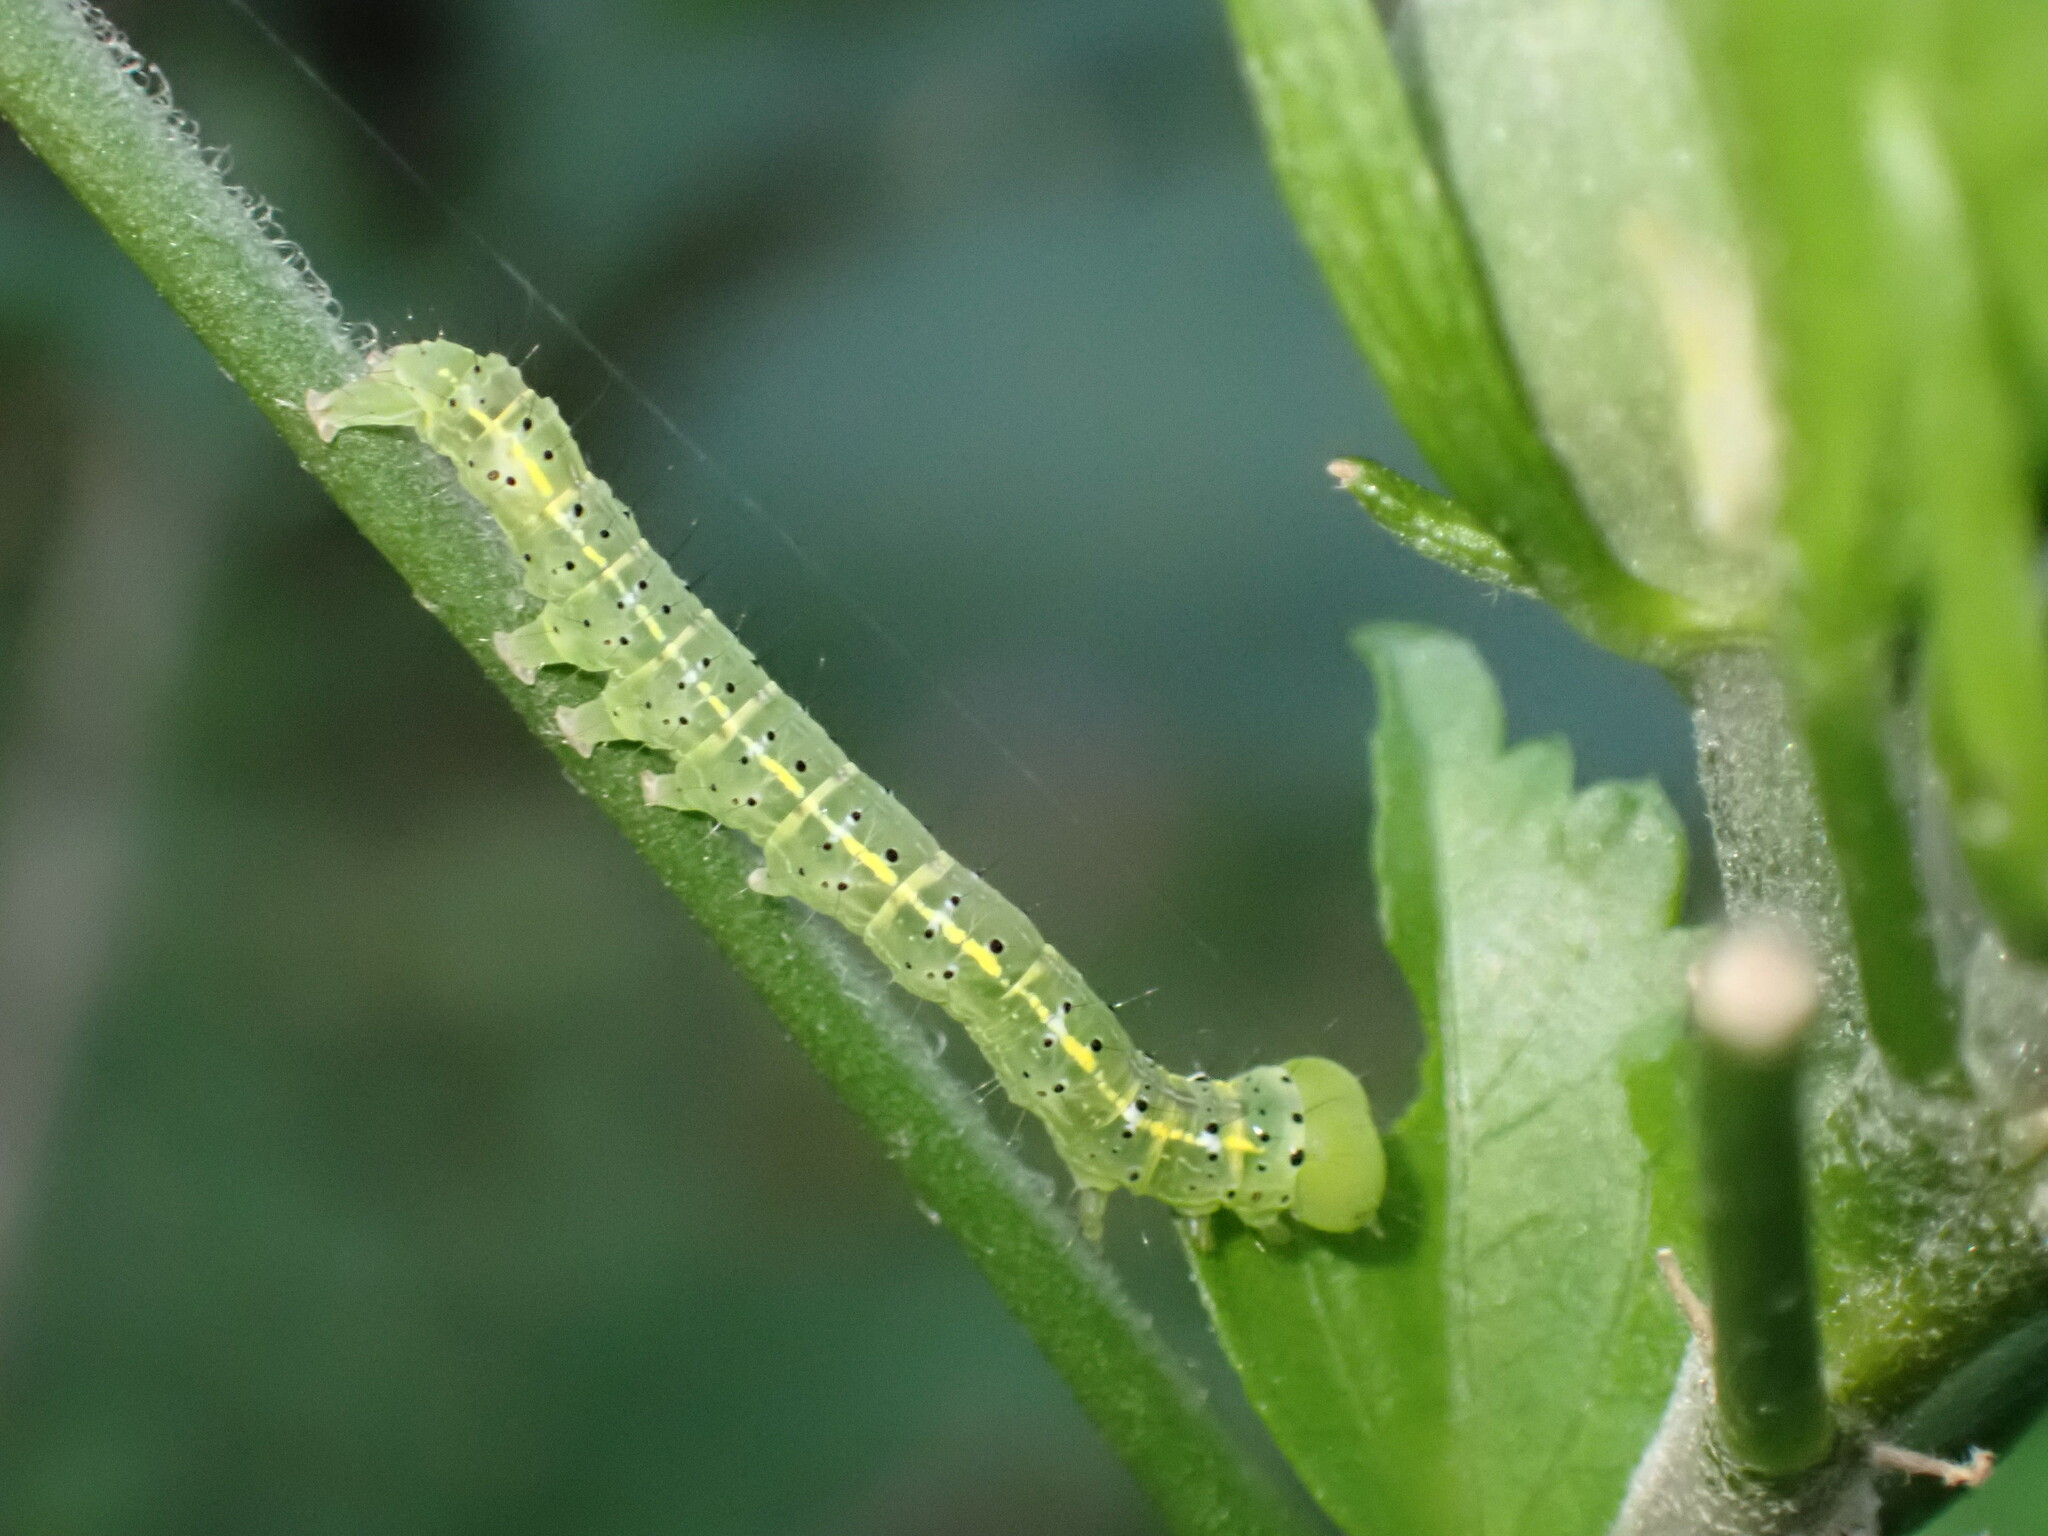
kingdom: Animalia
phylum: Arthropoda
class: Insecta
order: Lepidoptera
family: Erebidae
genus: Rusicada
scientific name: Rusicada privata
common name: Hibiscus leaf caterpillar moth
